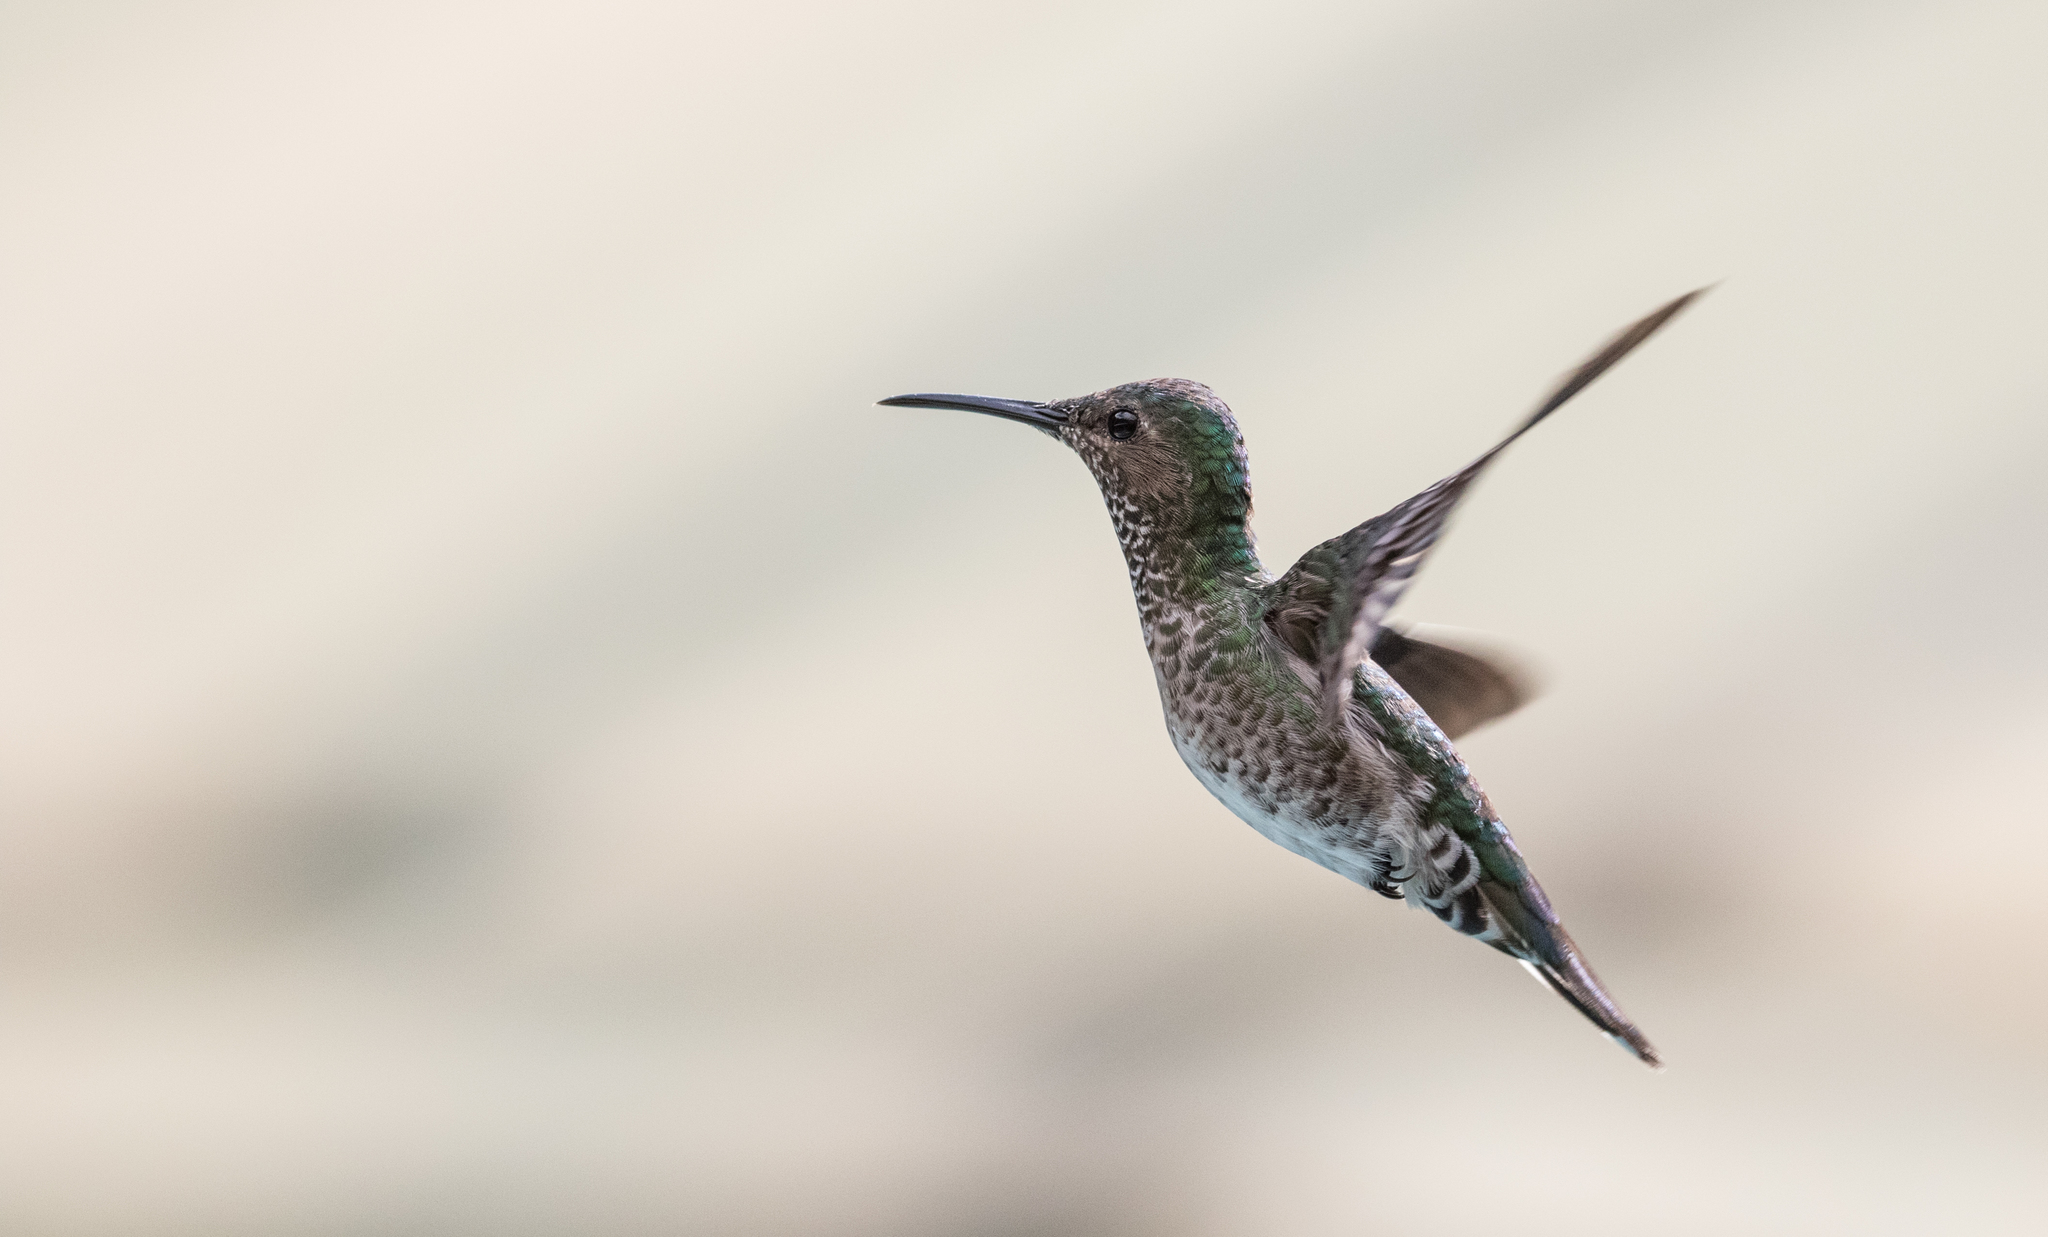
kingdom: Animalia
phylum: Chordata
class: Aves
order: Apodiformes
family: Trochilidae
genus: Florisuga
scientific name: Florisuga mellivora
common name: White-necked jacobin
